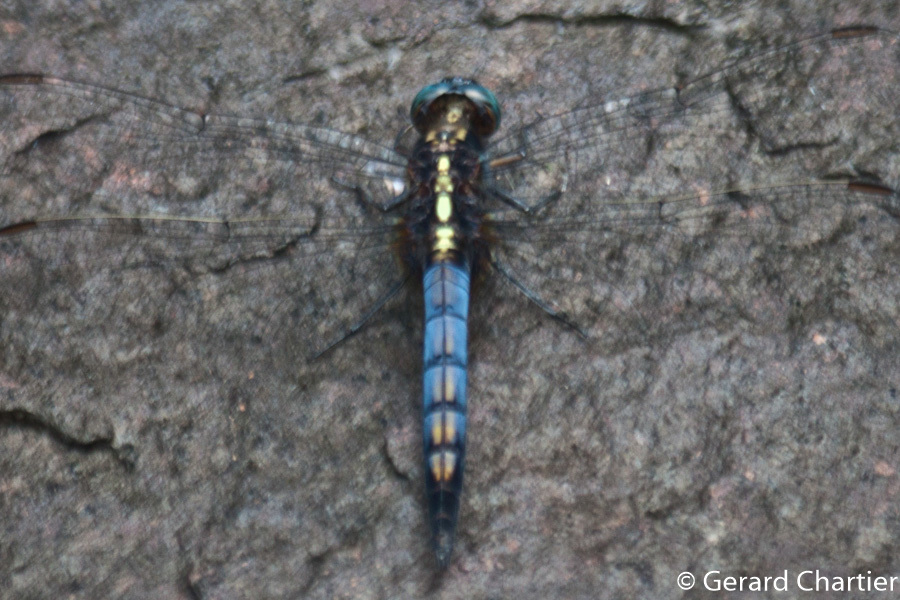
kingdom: Animalia
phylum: Arthropoda
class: Insecta
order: Odonata
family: Libellulidae
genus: Orthetrum
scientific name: Orthetrum glaucum
